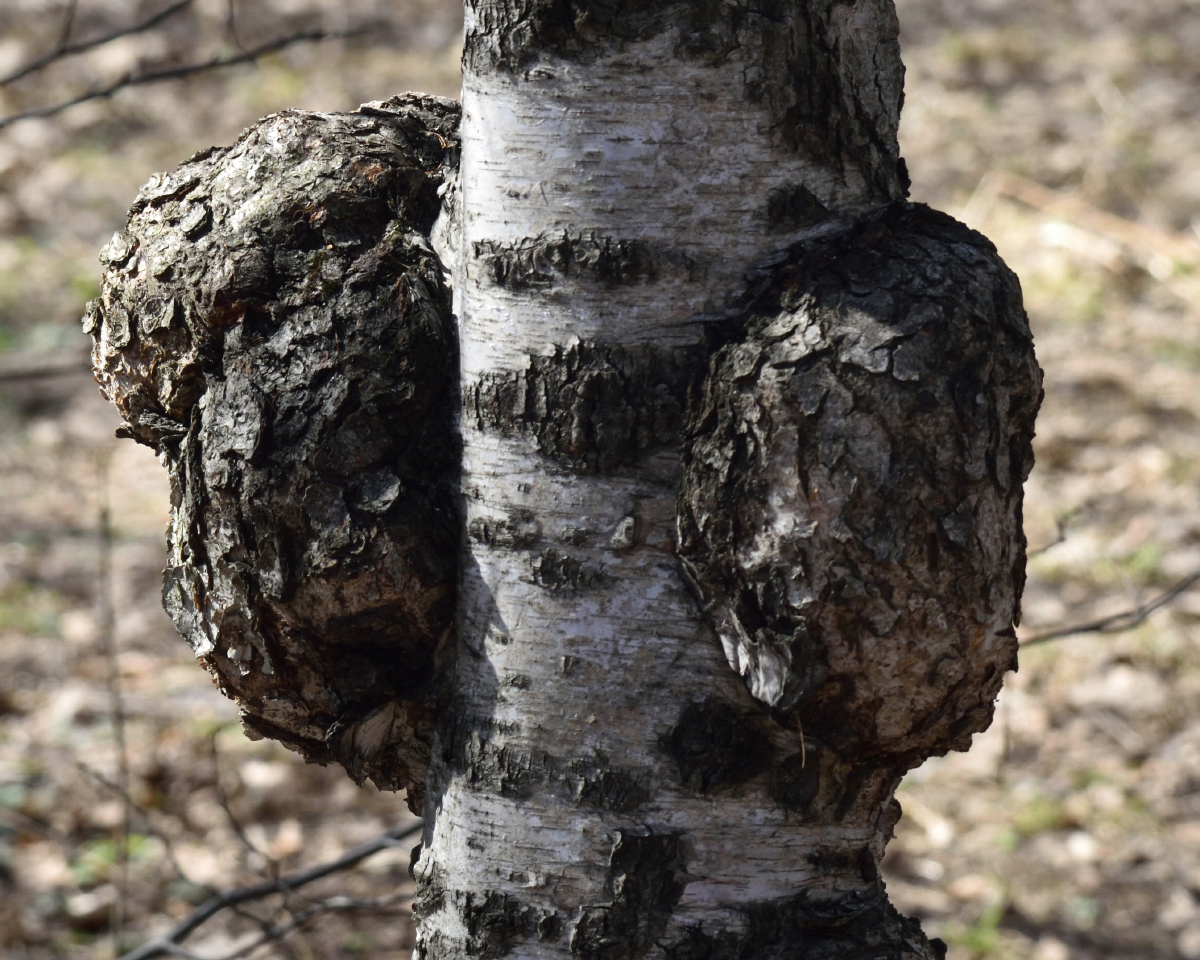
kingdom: Bacteria
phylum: Proteobacteria
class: Alphaproteobacteria
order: Rhizobiales
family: Rhizobiaceae
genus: Rhizobium
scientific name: Rhizobium Agrobacterium radiobacter
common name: Bacterial crown gall
